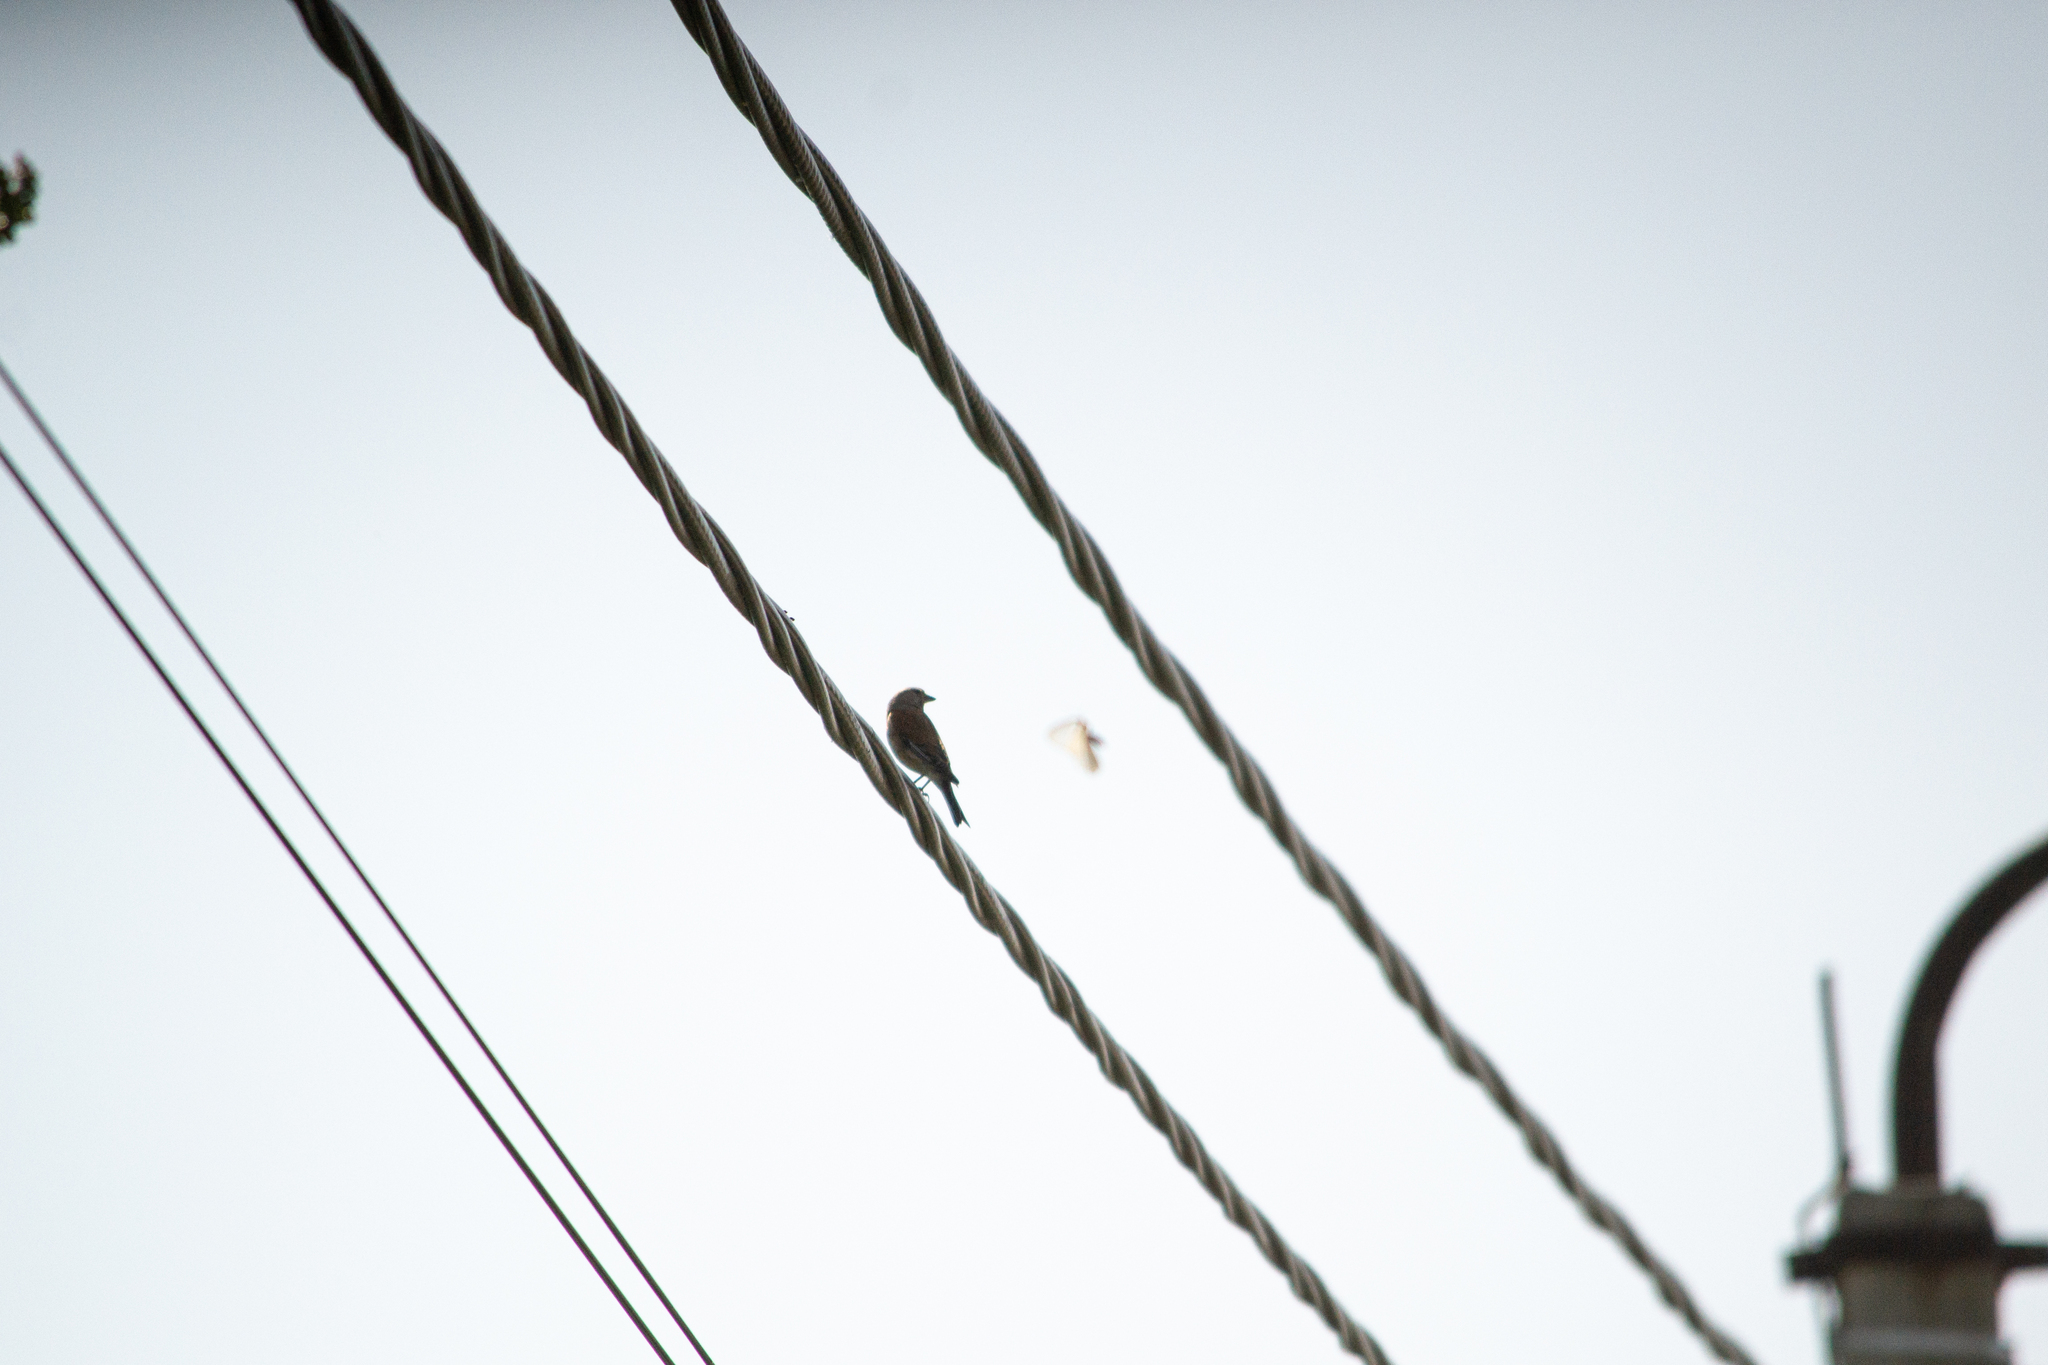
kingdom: Animalia
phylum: Chordata
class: Aves
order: Passeriformes
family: Fringillidae
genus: Linaria
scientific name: Linaria cannabina
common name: Common linnet
